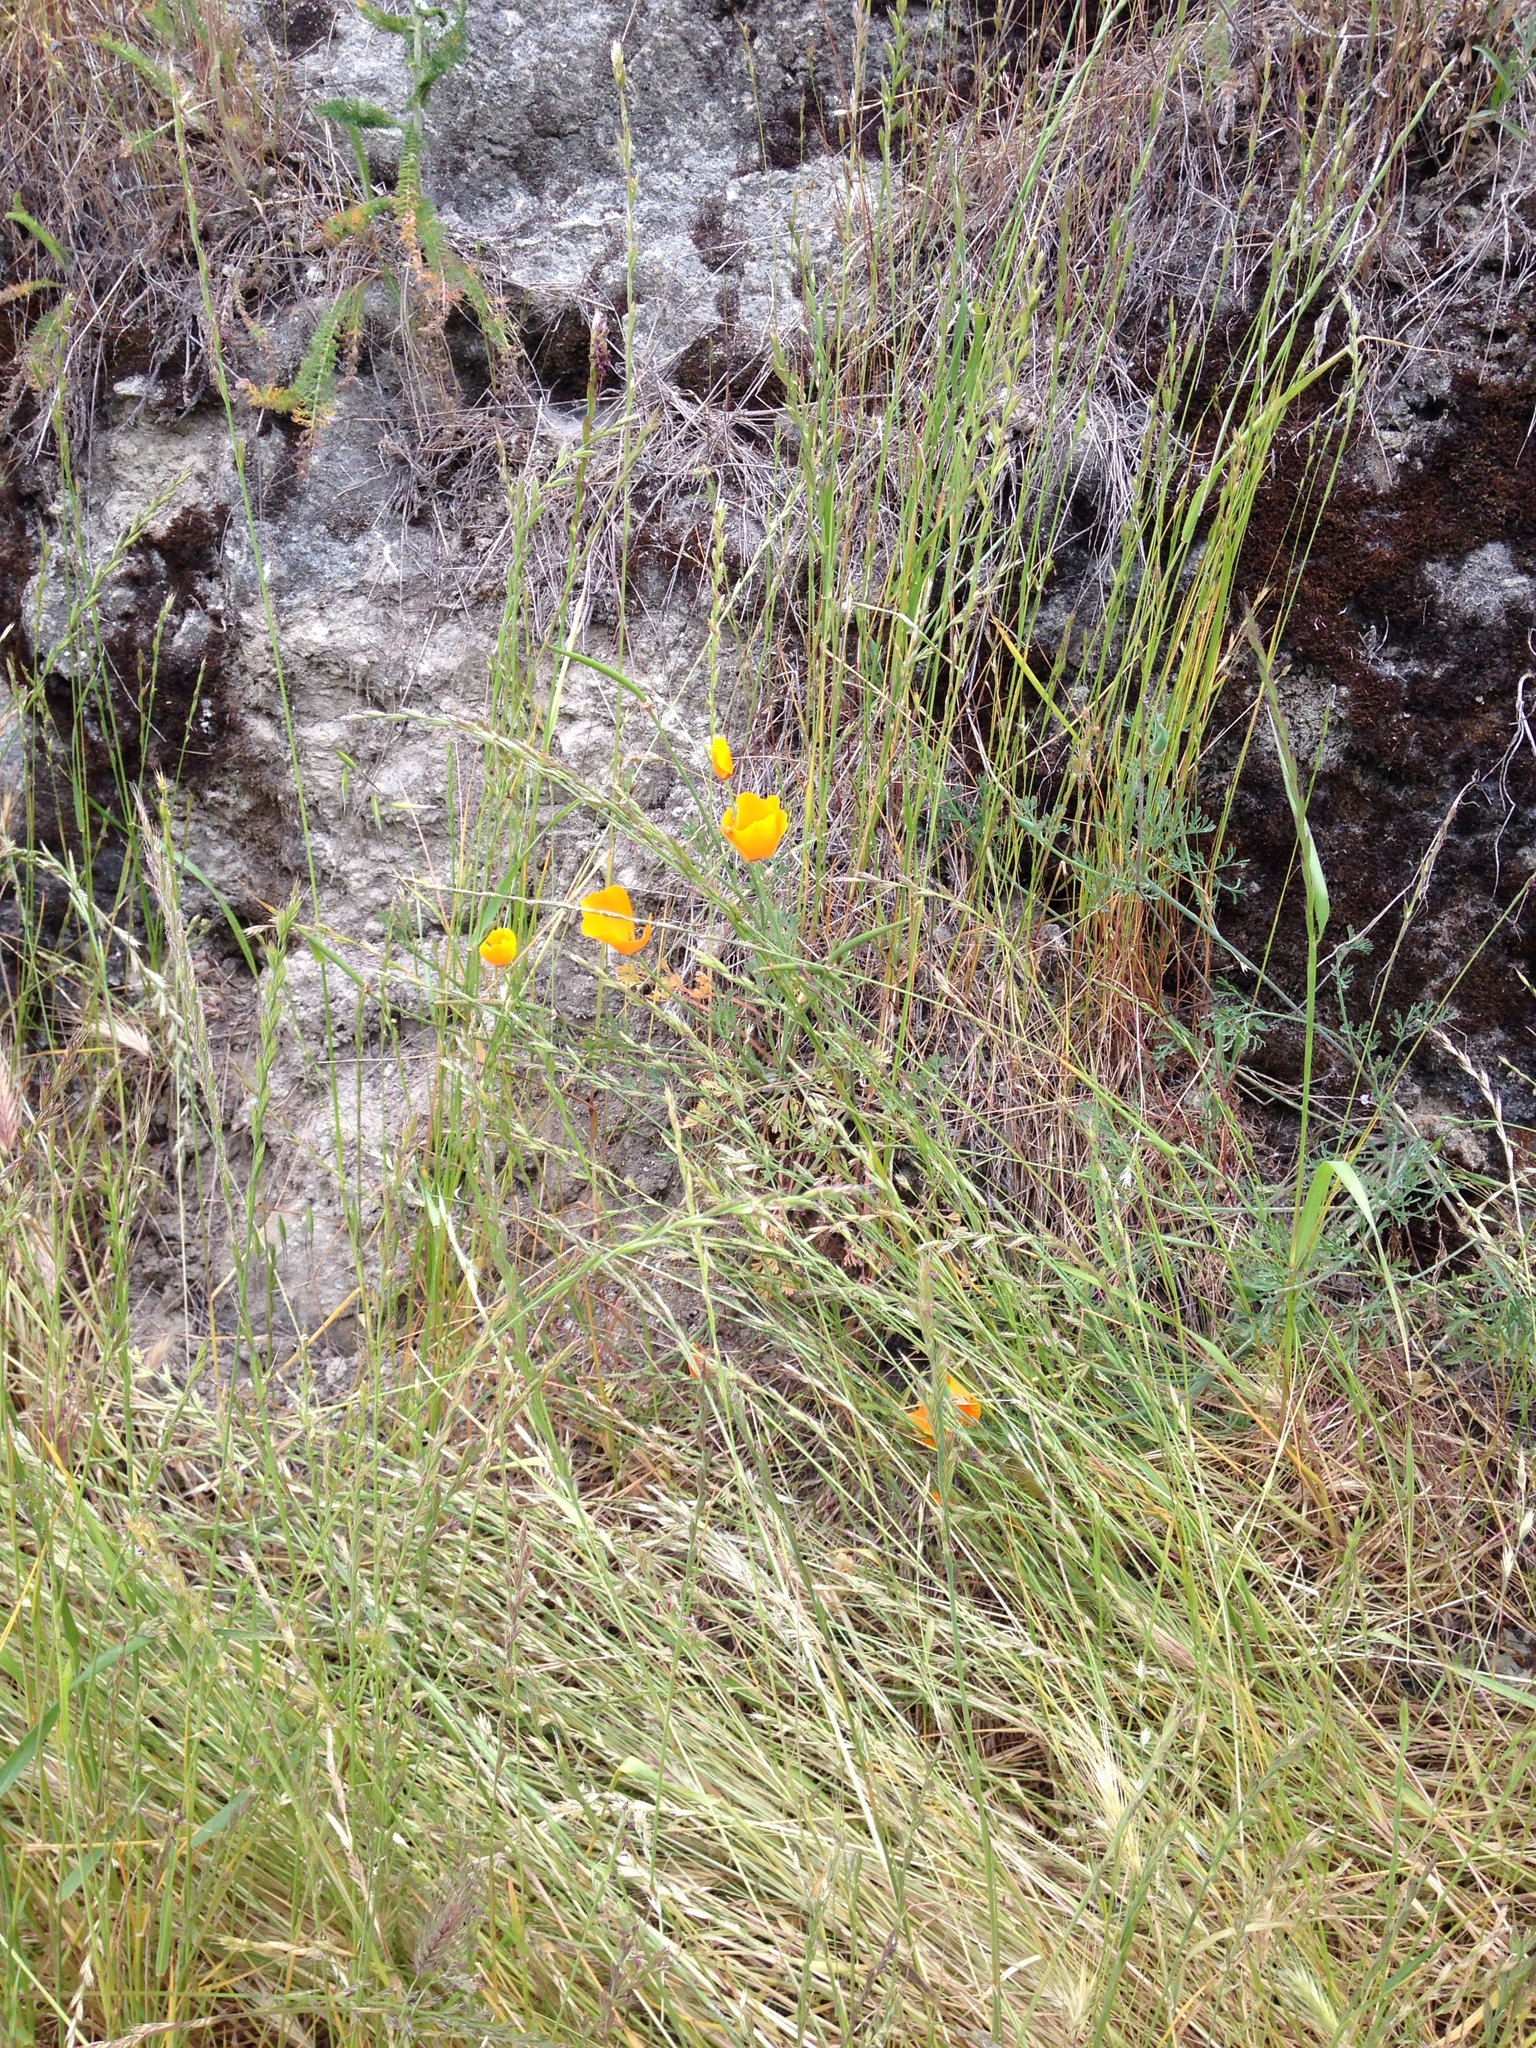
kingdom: Plantae
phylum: Tracheophyta
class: Magnoliopsida
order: Ranunculales
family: Papaveraceae
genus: Eschscholzia
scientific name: Eschscholzia californica
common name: California poppy
